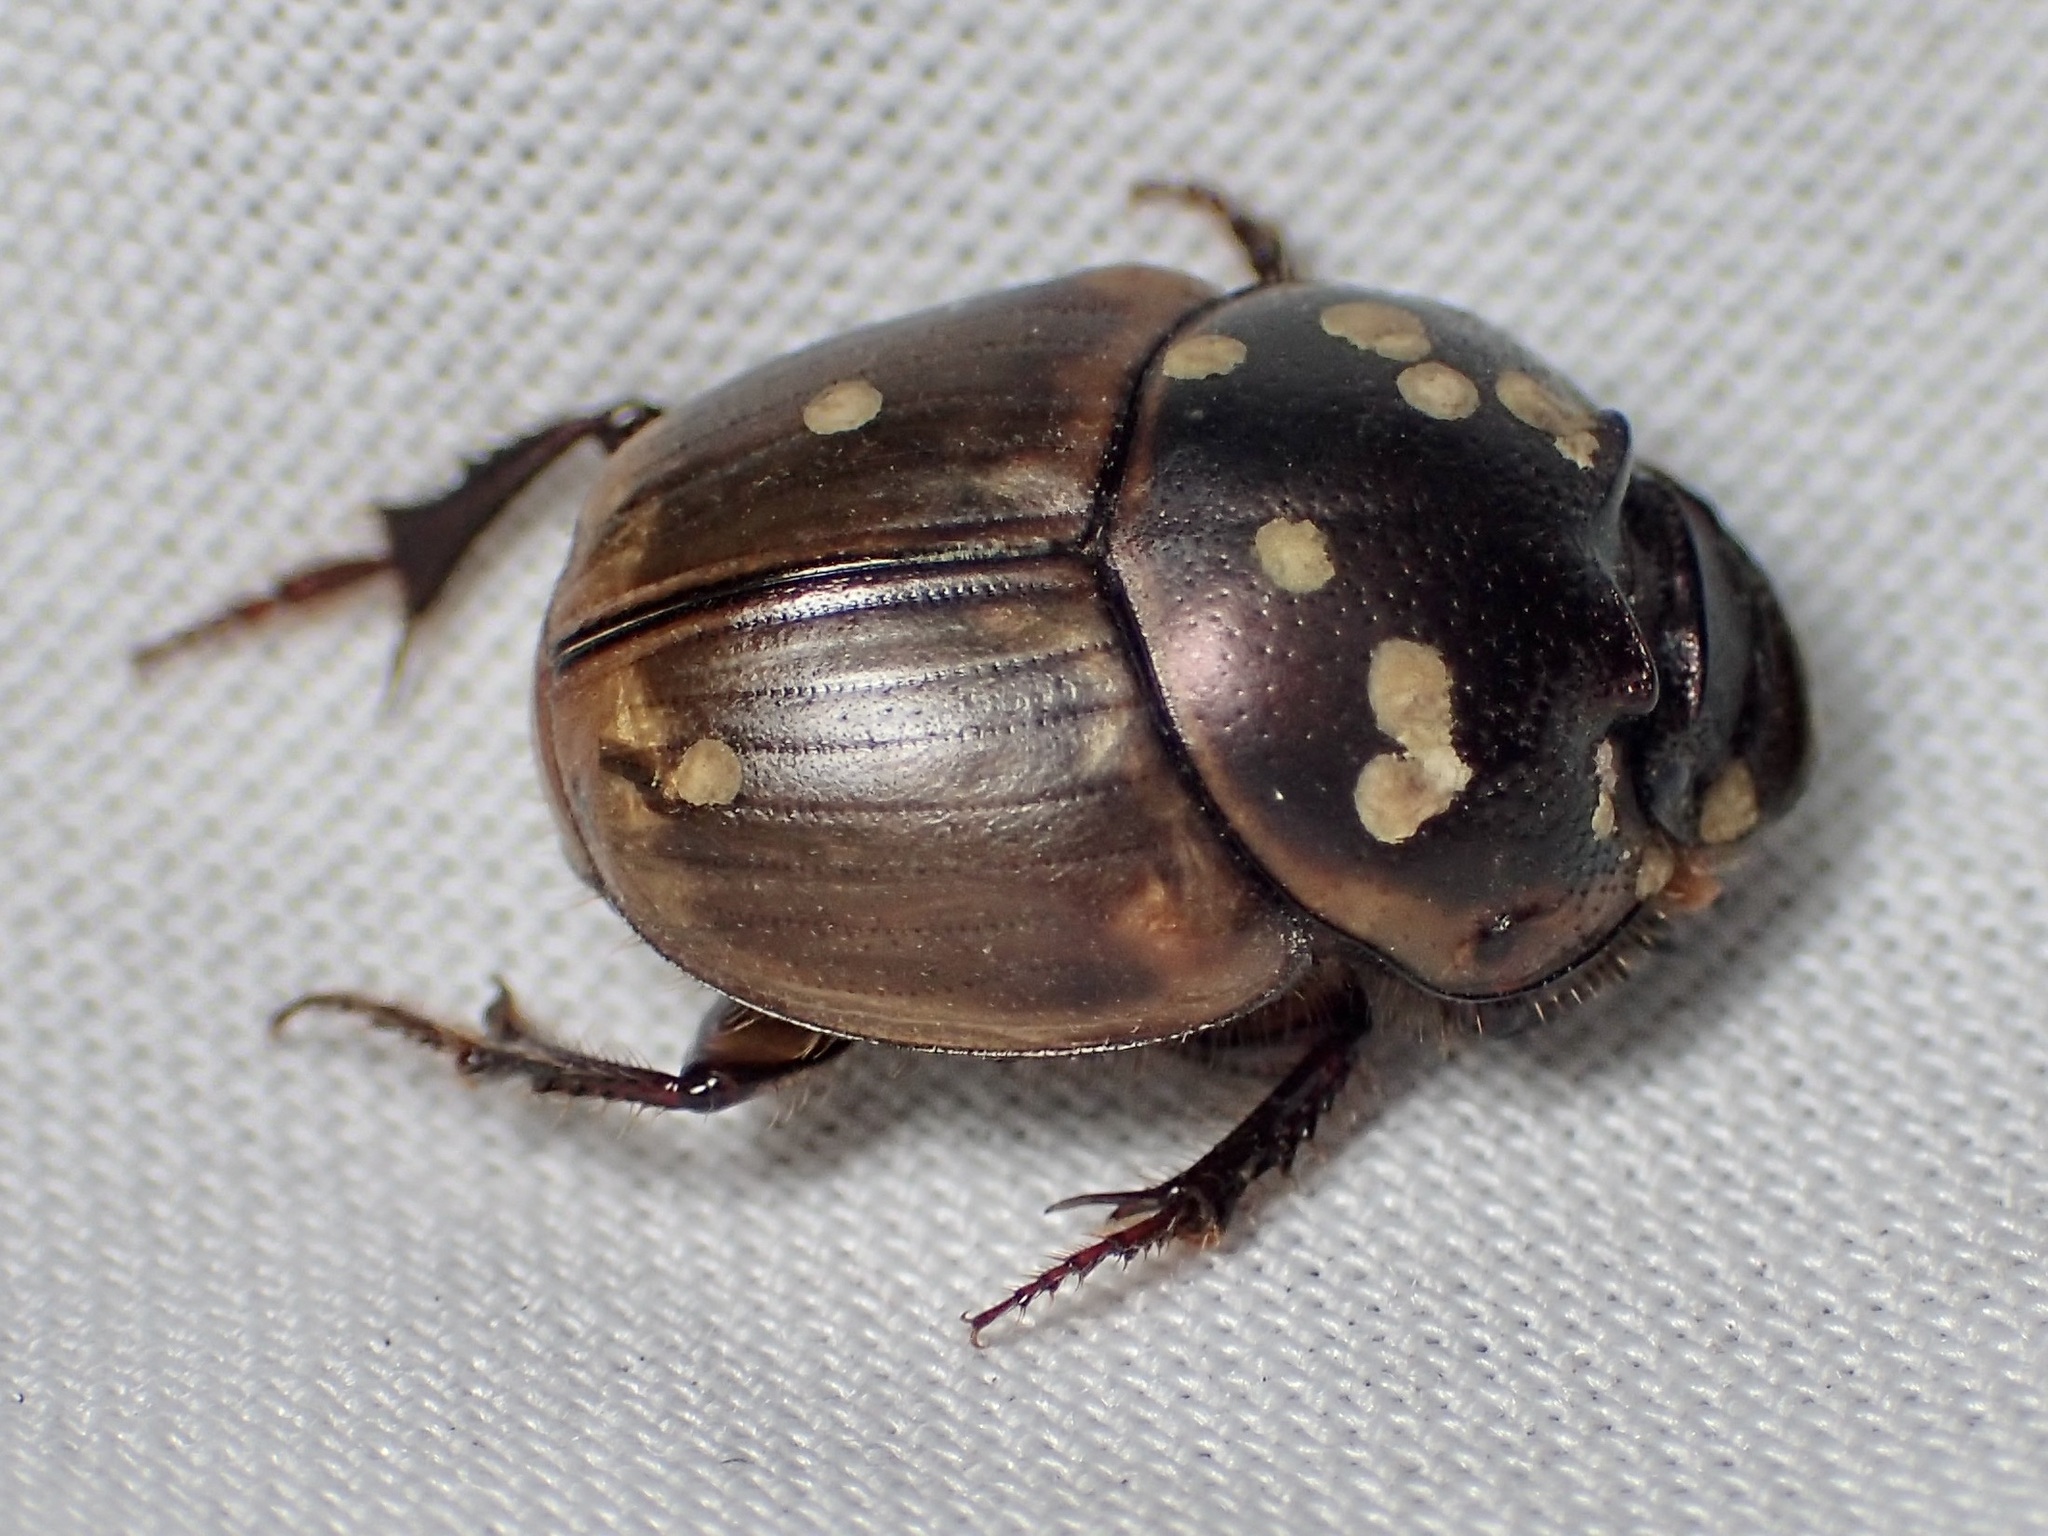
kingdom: Animalia
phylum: Arthropoda
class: Insecta
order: Coleoptera
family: Scarabaeidae
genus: Digitonthophagus
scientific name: Digitonthophagus gazella
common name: Brown dung beetle
